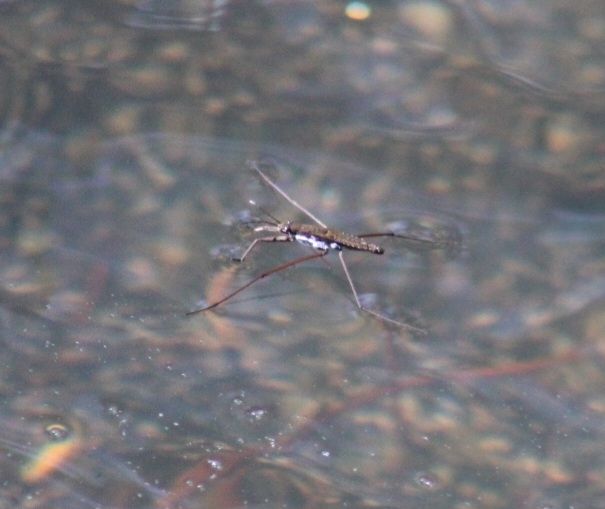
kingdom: Animalia
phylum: Arthropoda
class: Insecta
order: Hemiptera
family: Gerridae
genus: Aquarius
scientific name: Aquarius
